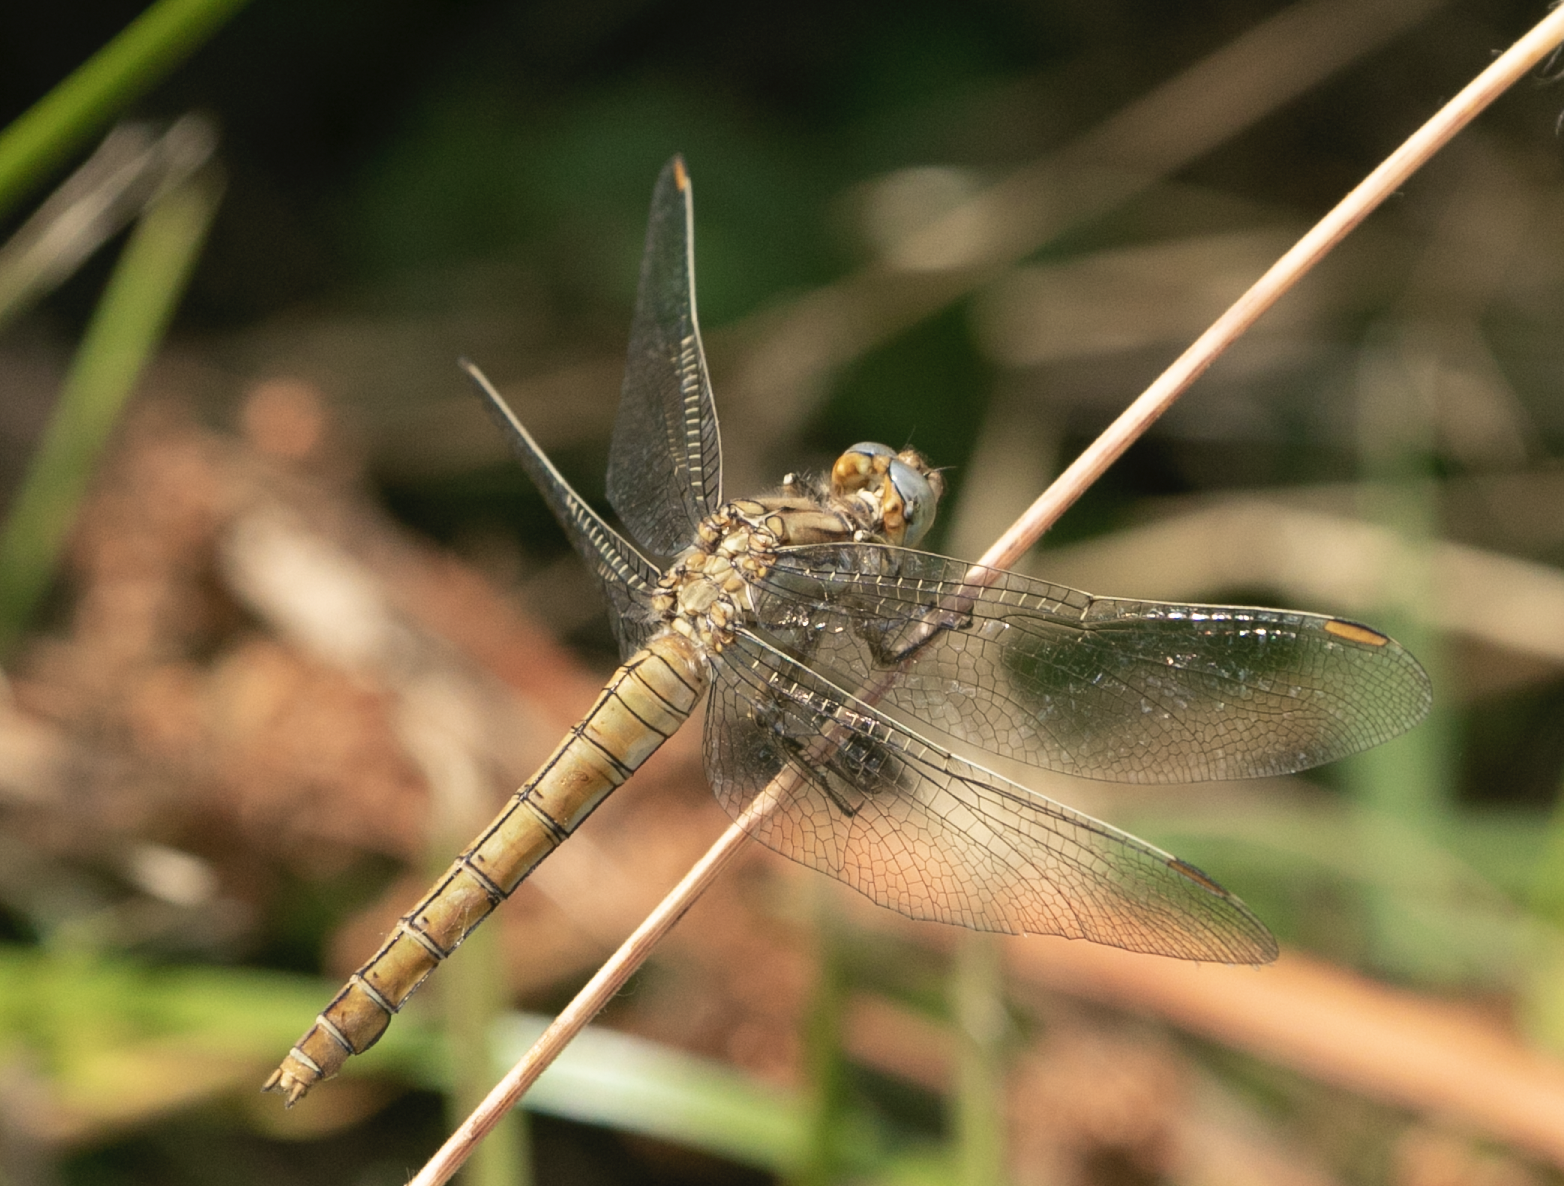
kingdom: Animalia
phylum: Arthropoda
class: Insecta
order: Odonata
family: Libellulidae
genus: Orthetrum
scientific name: Orthetrum brunneum
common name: Southern skimmer
